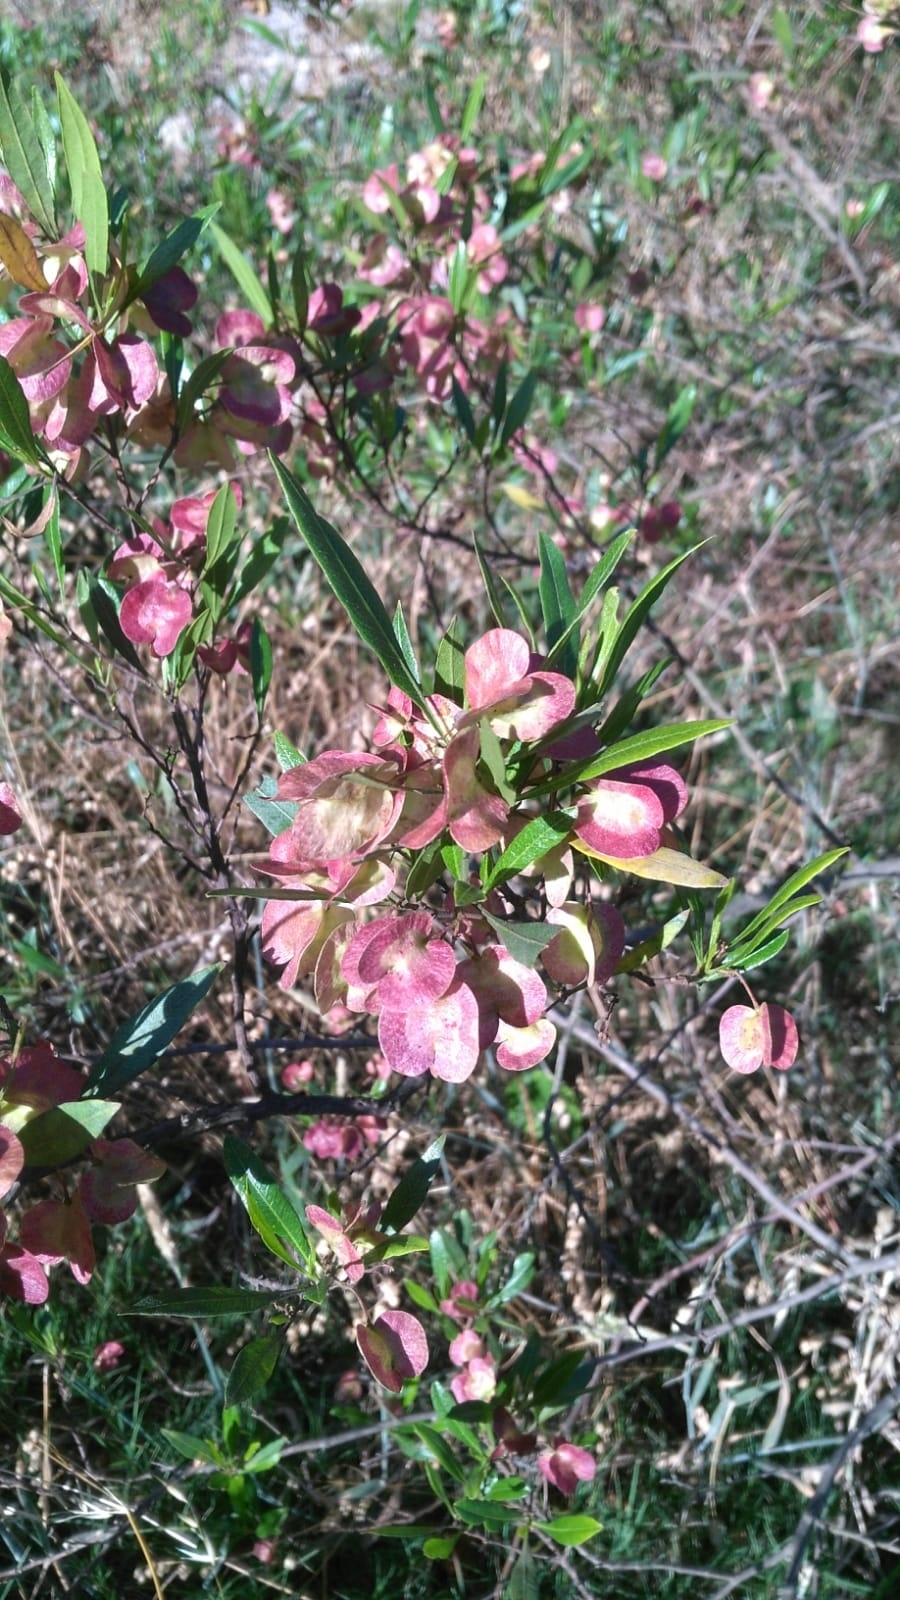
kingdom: Plantae
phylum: Tracheophyta
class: Magnoliopsida
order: Sapindales
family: Sapindaceae
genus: Dodonaea
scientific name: Dodonaea viscosa
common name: Hopbush
